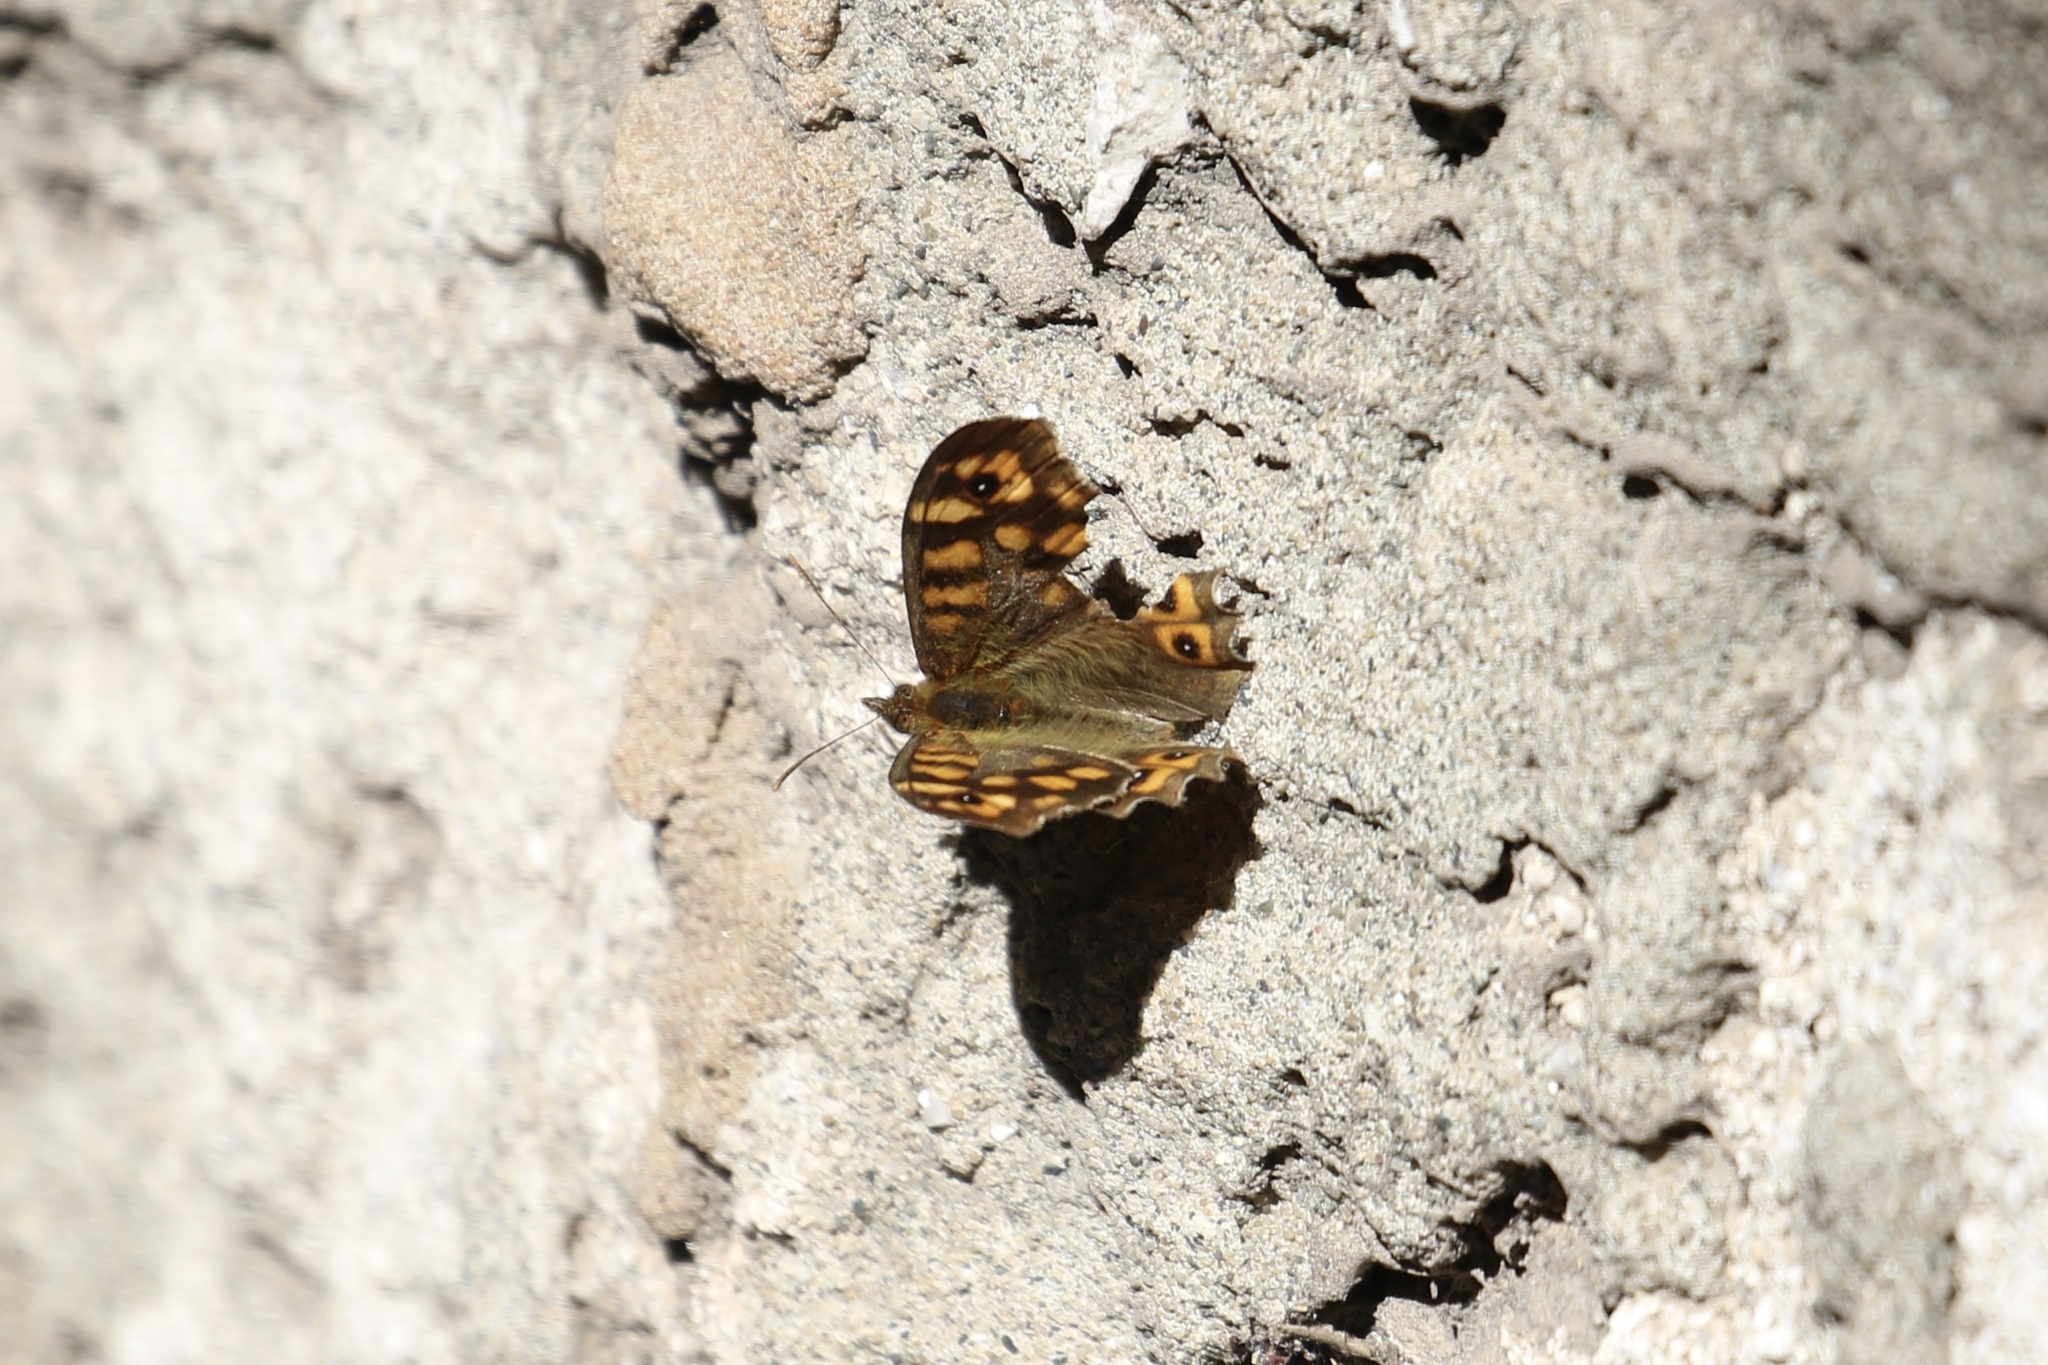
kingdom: Animalia
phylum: Arthropoda
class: Insecta
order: Lepidoptera
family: Nymphalidae
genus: Pararge
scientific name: Pararge aegeria
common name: Speckled wood
